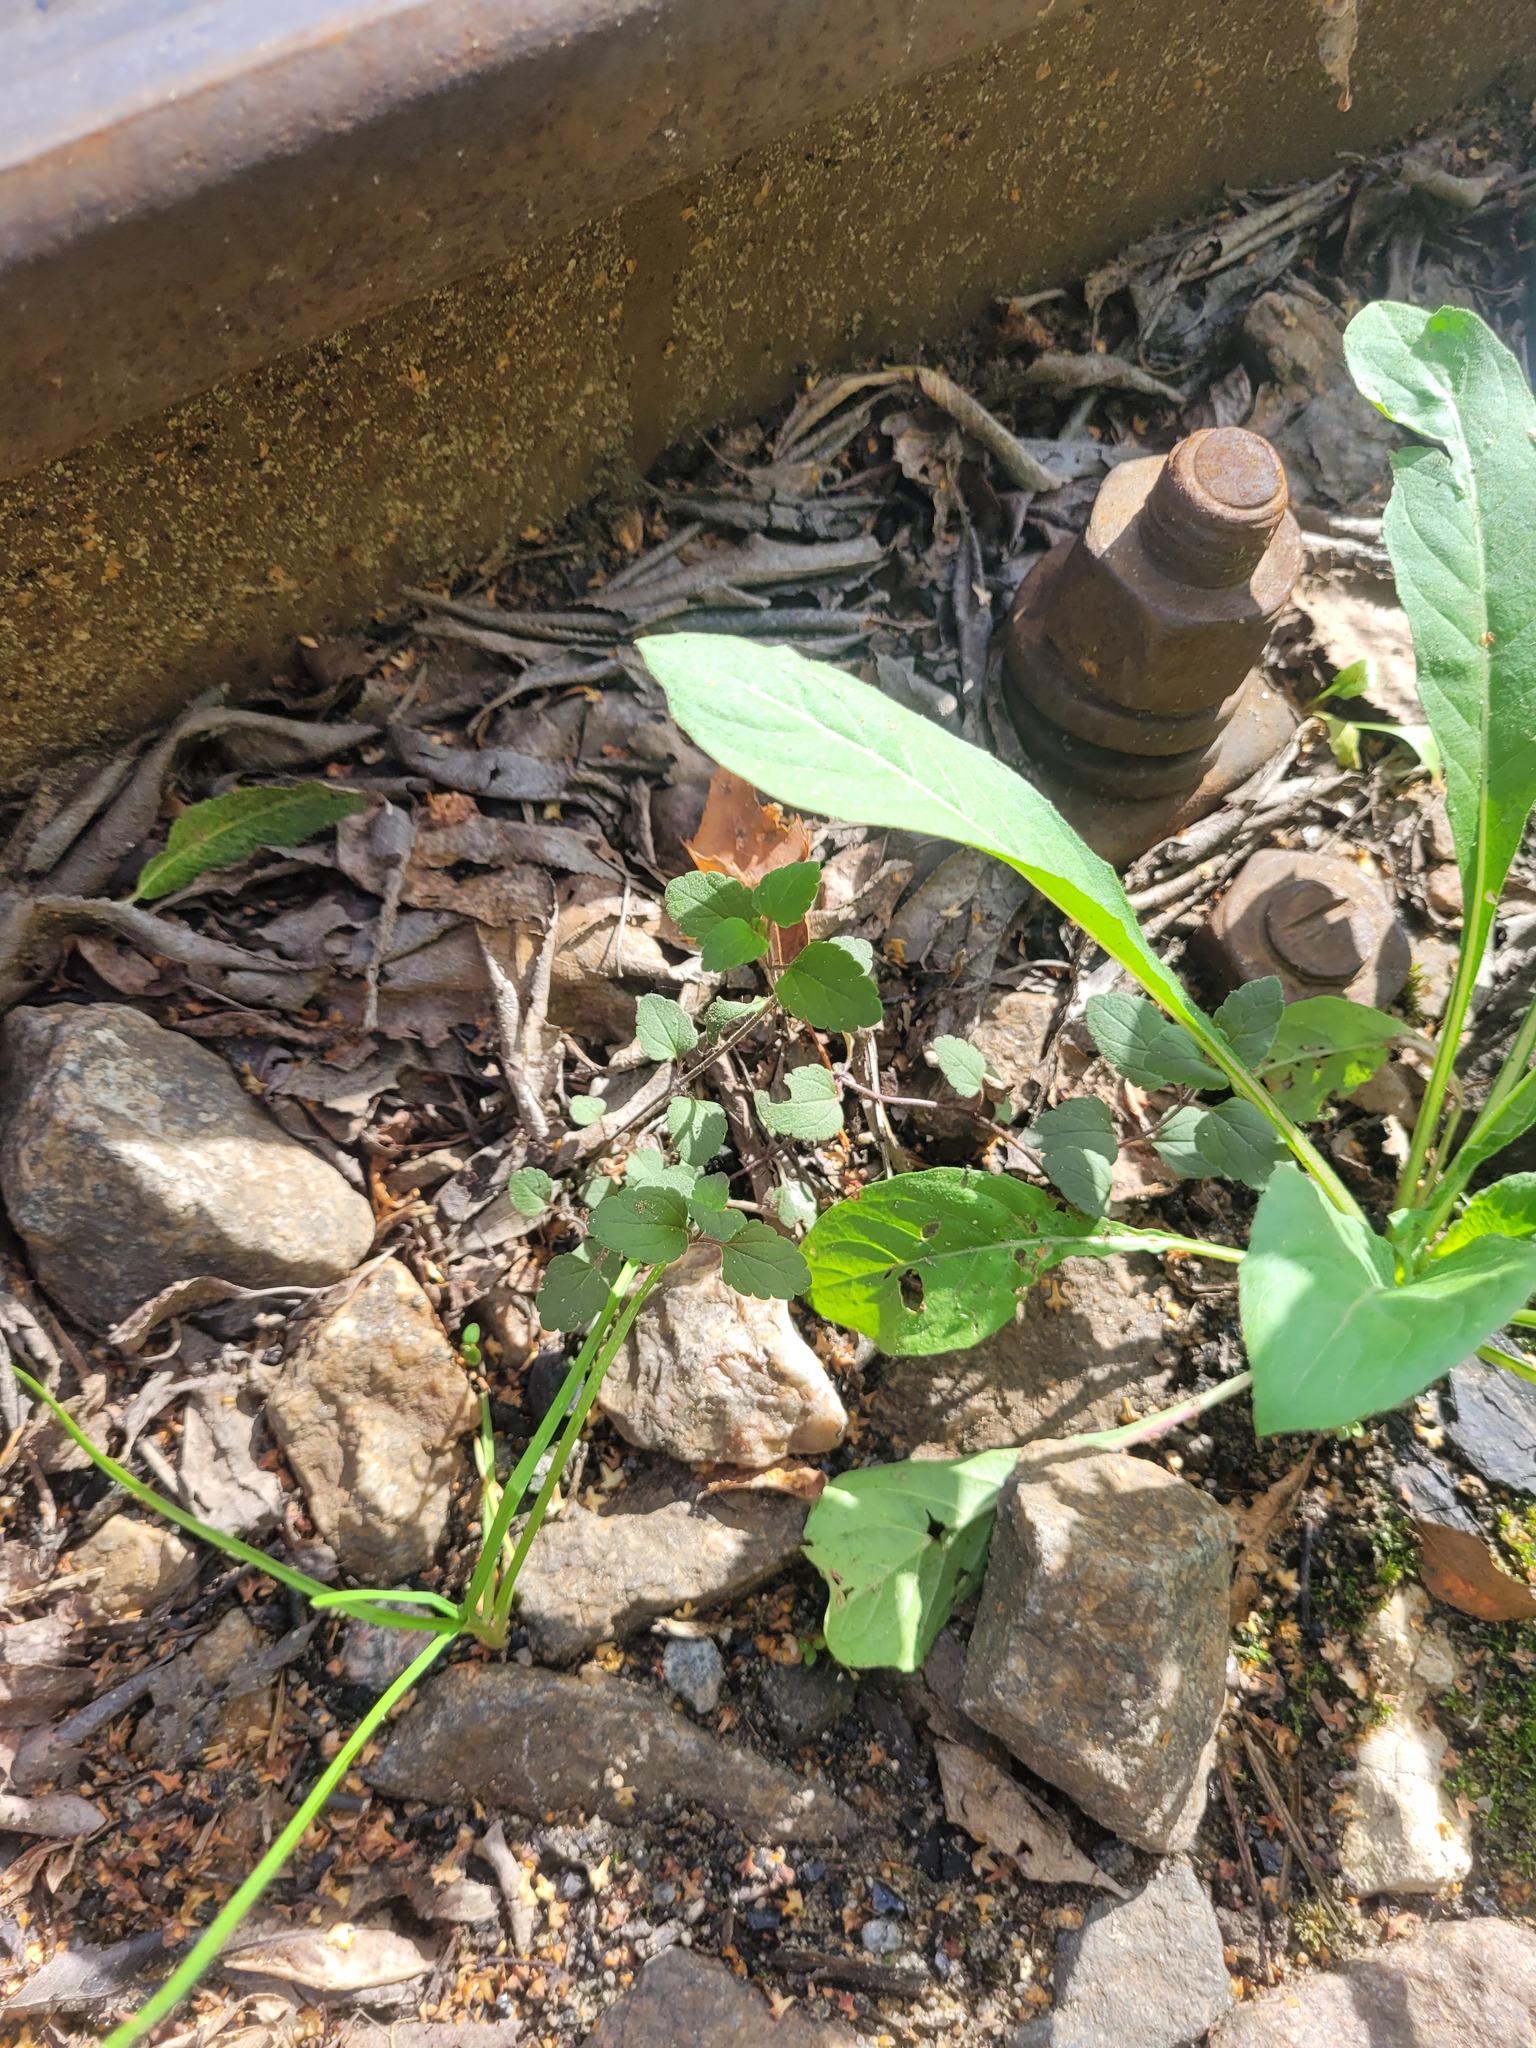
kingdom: Plantae
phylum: Tracheophyta
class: Magnoliopsida
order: Lamiales
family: Plantaginaceae
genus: Veronica
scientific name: Veronica chamaedrys
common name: Germander speedwell
